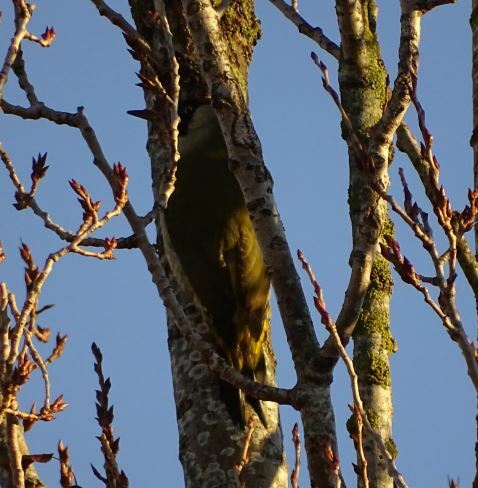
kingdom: Animalia
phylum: Chordata
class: Aves
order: Piciformes
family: Picidae
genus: Picus
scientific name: Picus viridis
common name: European green woodpecker
